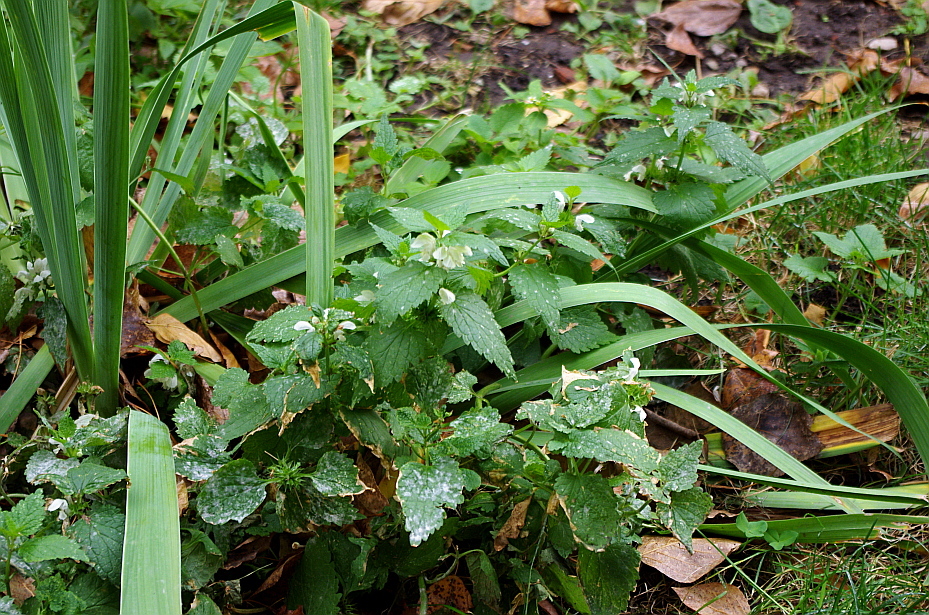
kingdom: Plantae
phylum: Tracheophyta
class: Magnoliopsida
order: Lamiales
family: Lamiaceae
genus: Lamium
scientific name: Lamium album
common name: White dead-nettle
